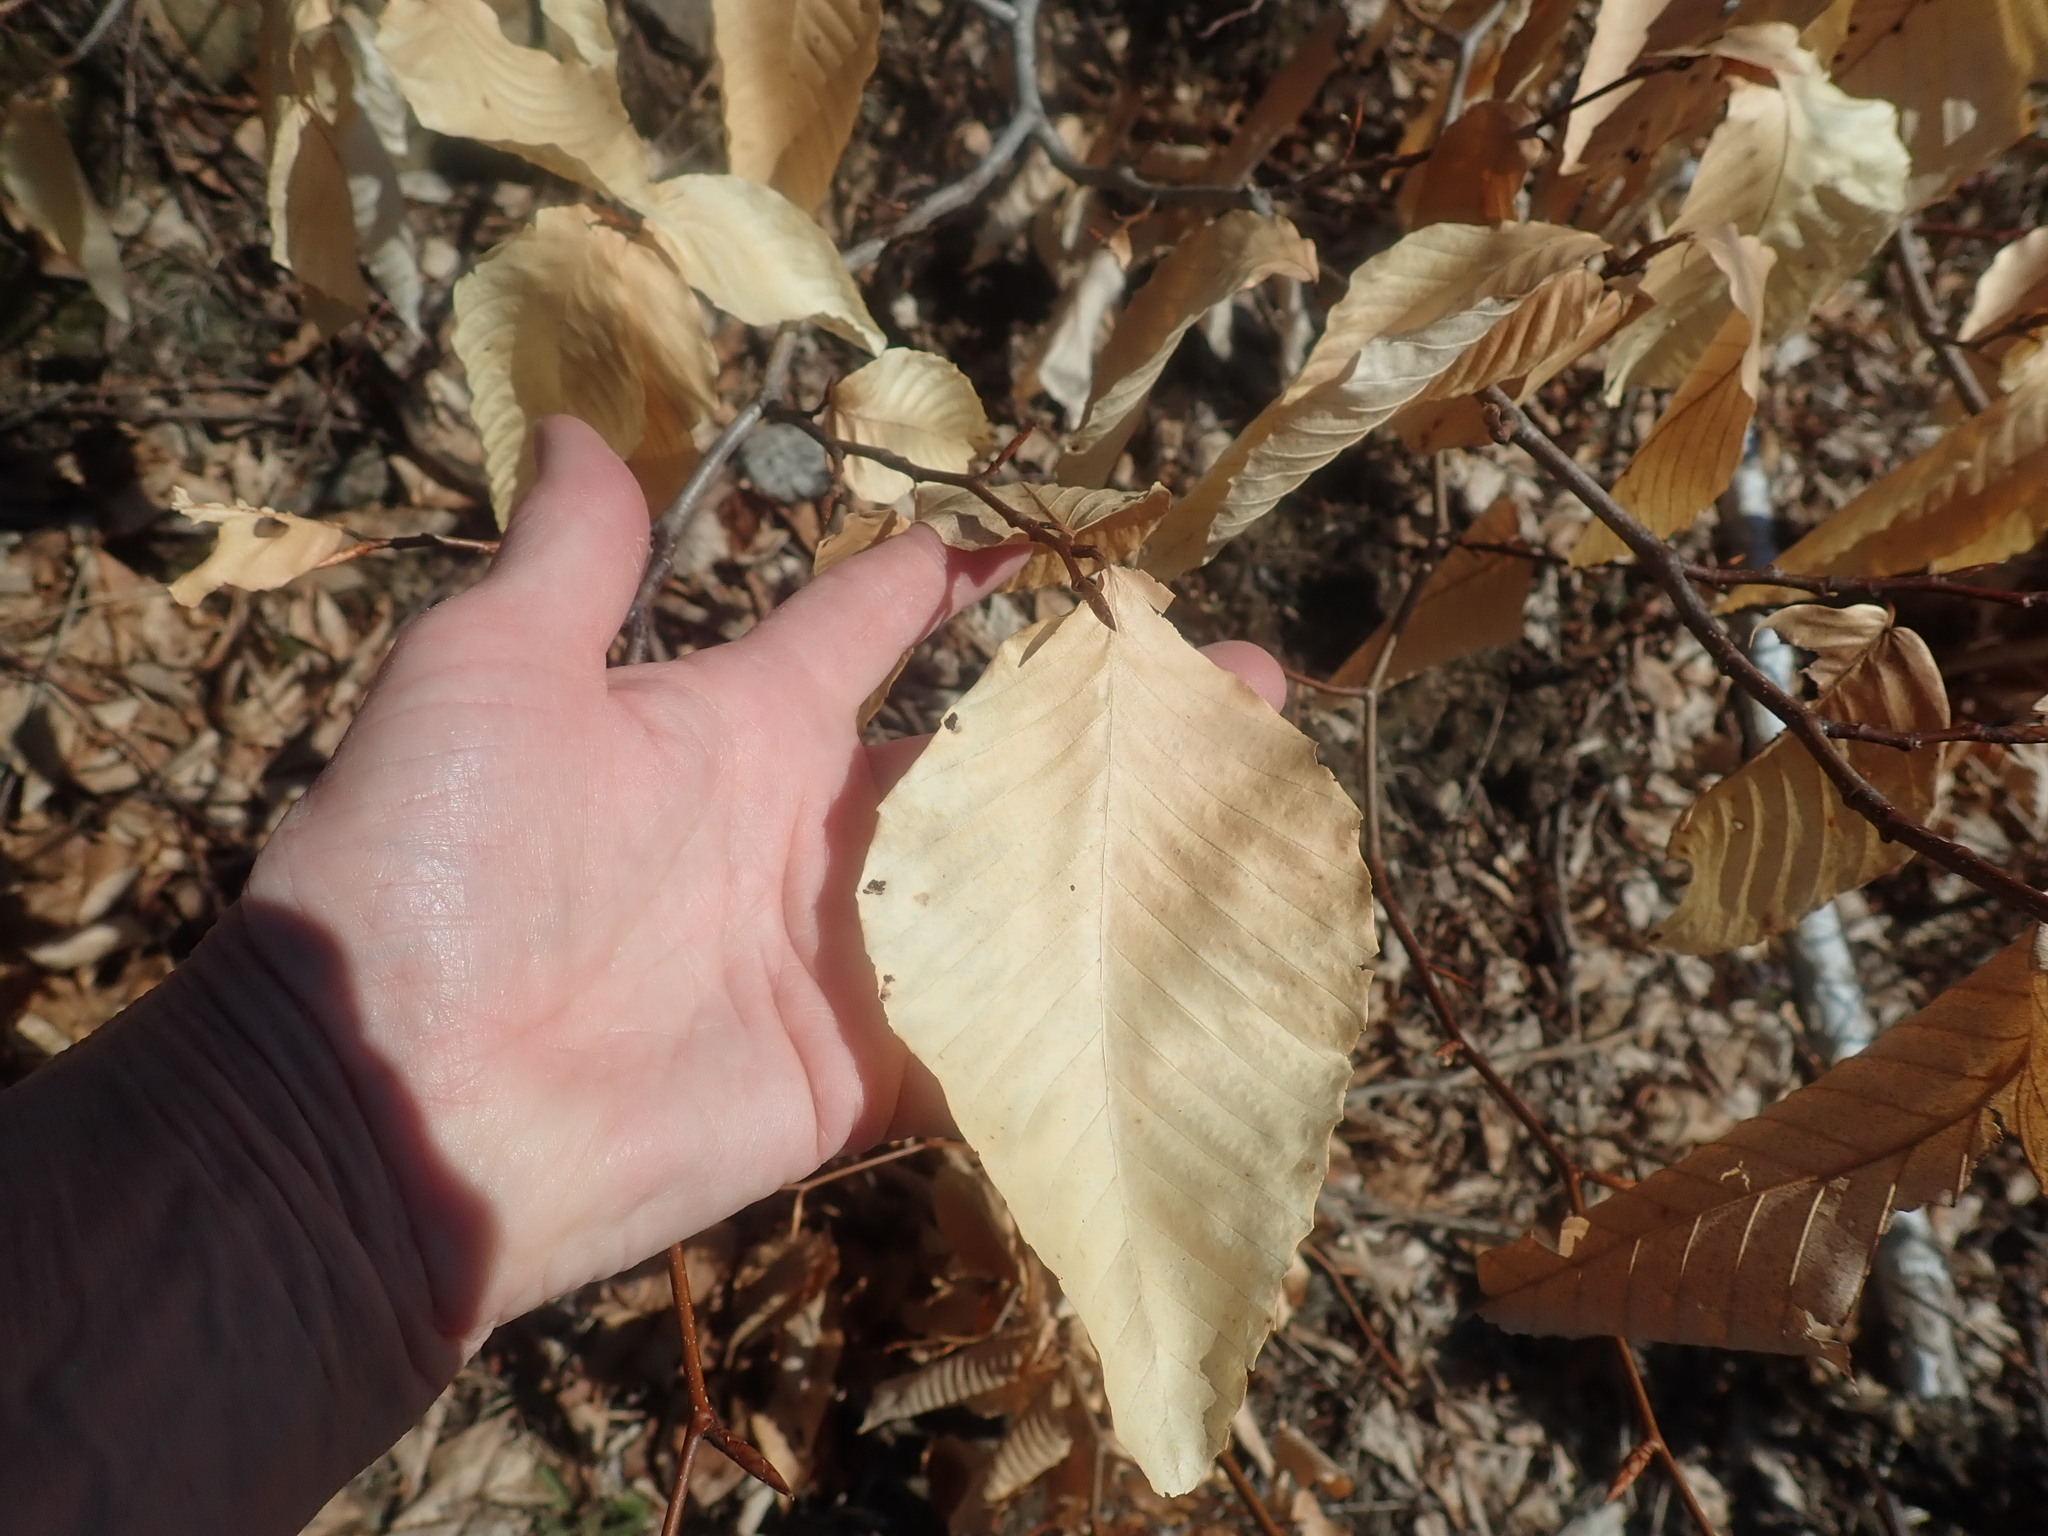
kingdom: Plantae
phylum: Tracheophyta
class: Magnoliopsida
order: Fagales
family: Fagaceae
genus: Fagus
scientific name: Fagus grandifolia
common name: American beech
